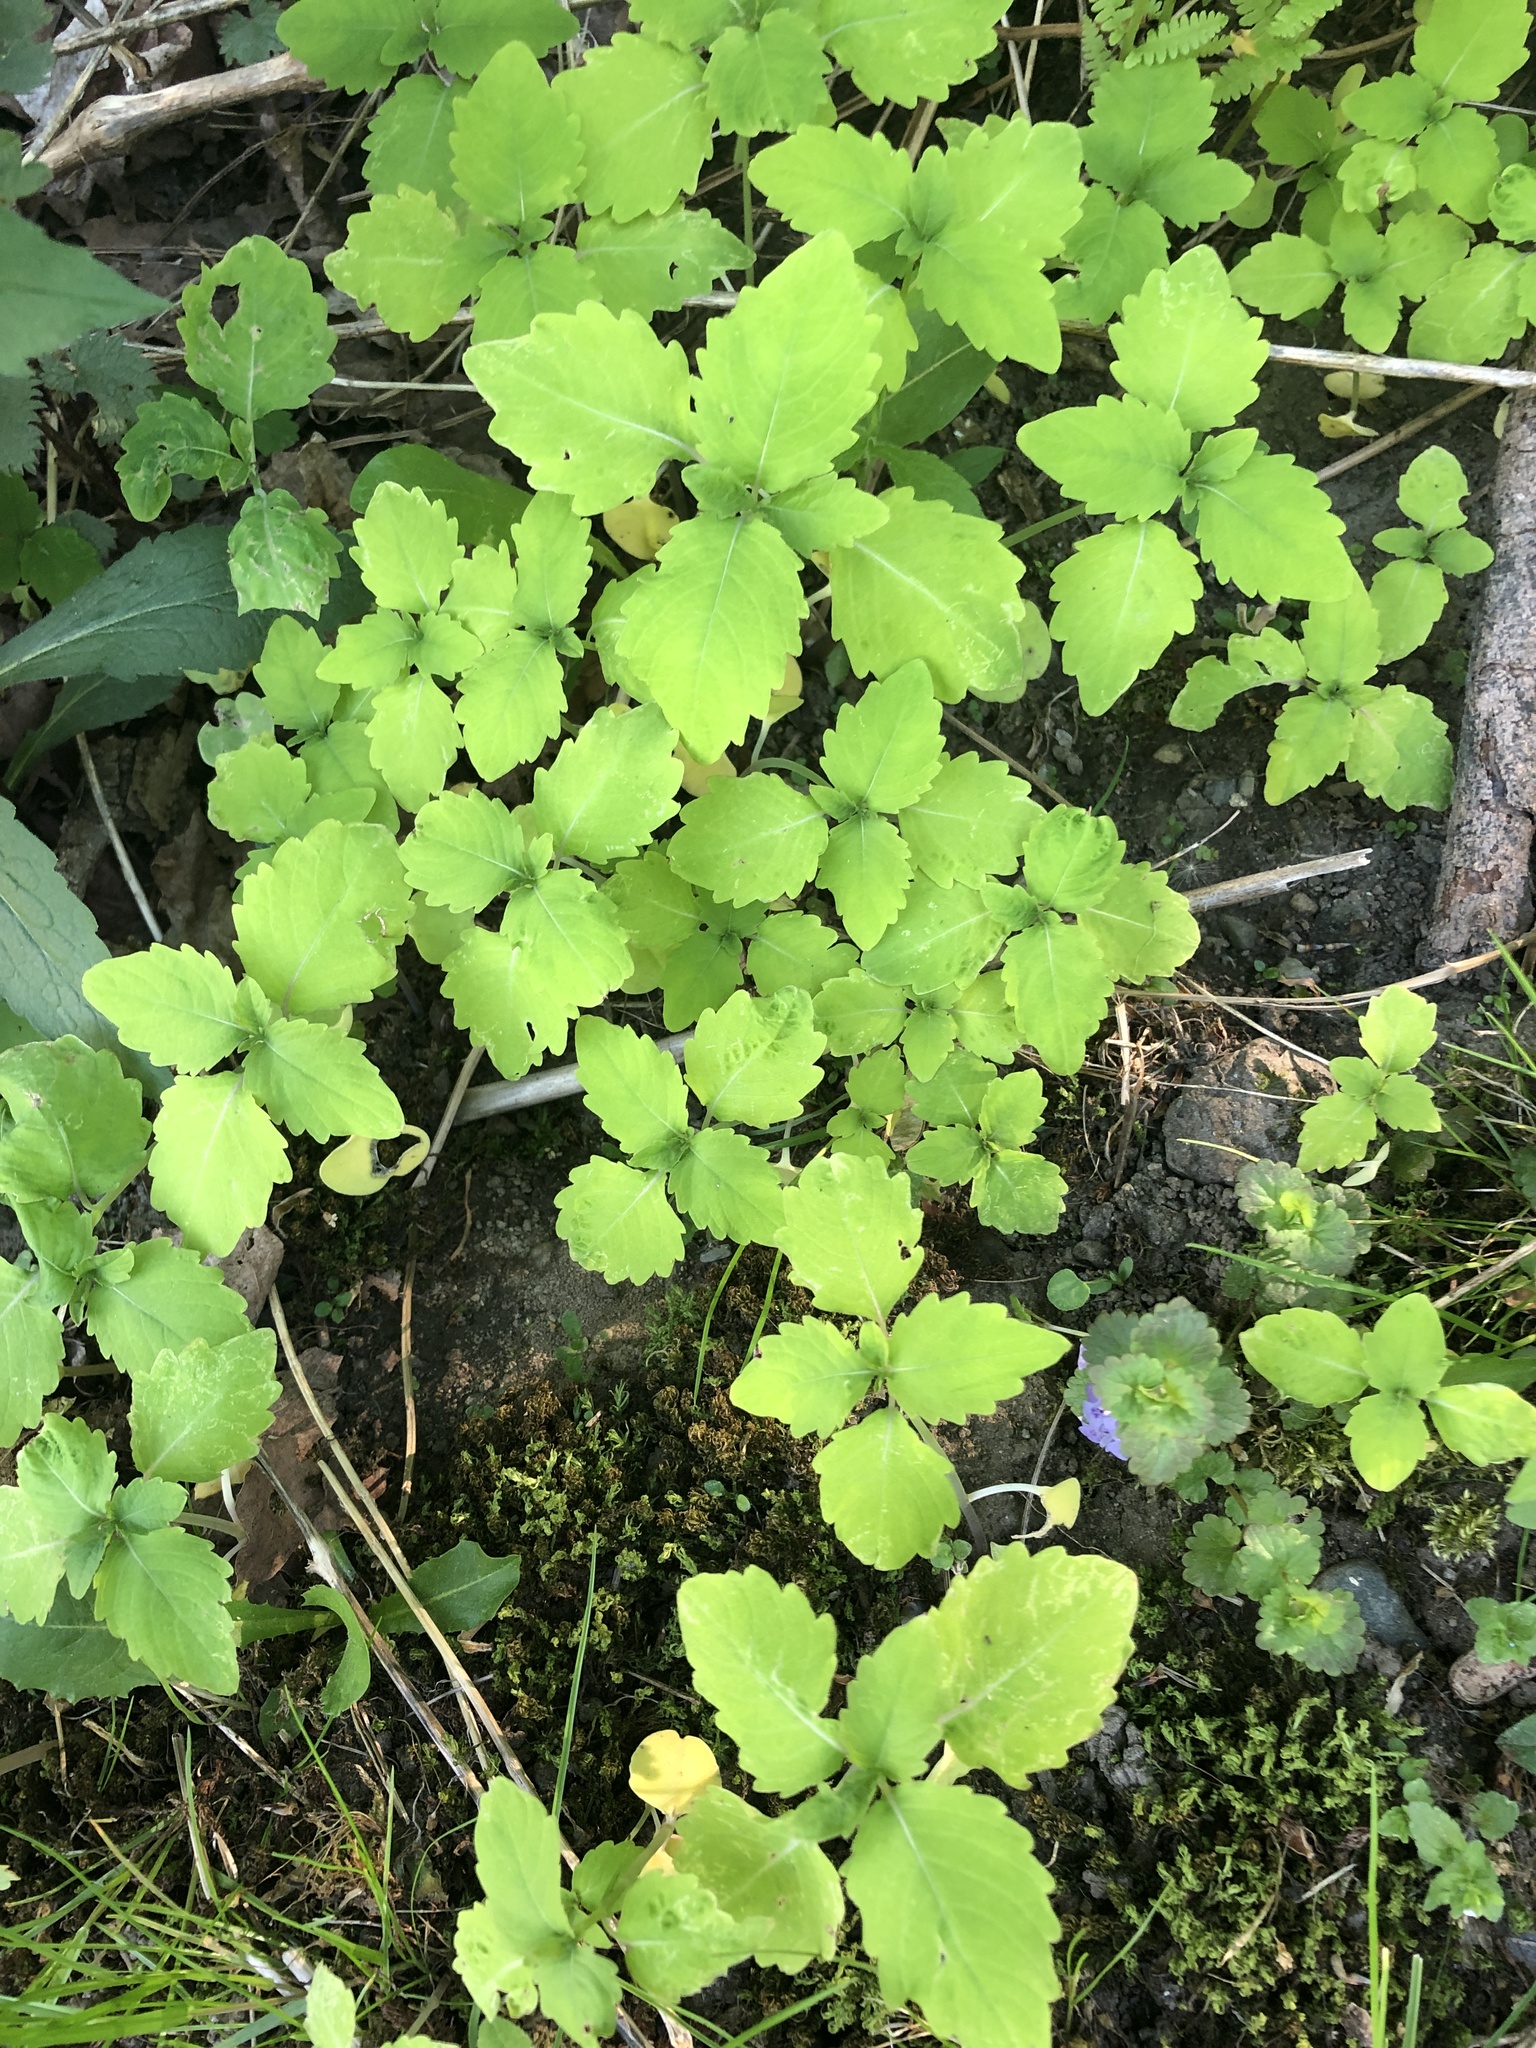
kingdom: Plantae
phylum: Tracheophyta
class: Magnoliopsida
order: Ericales
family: Balsaminaceae
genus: Impatiens
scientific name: Impatiens
